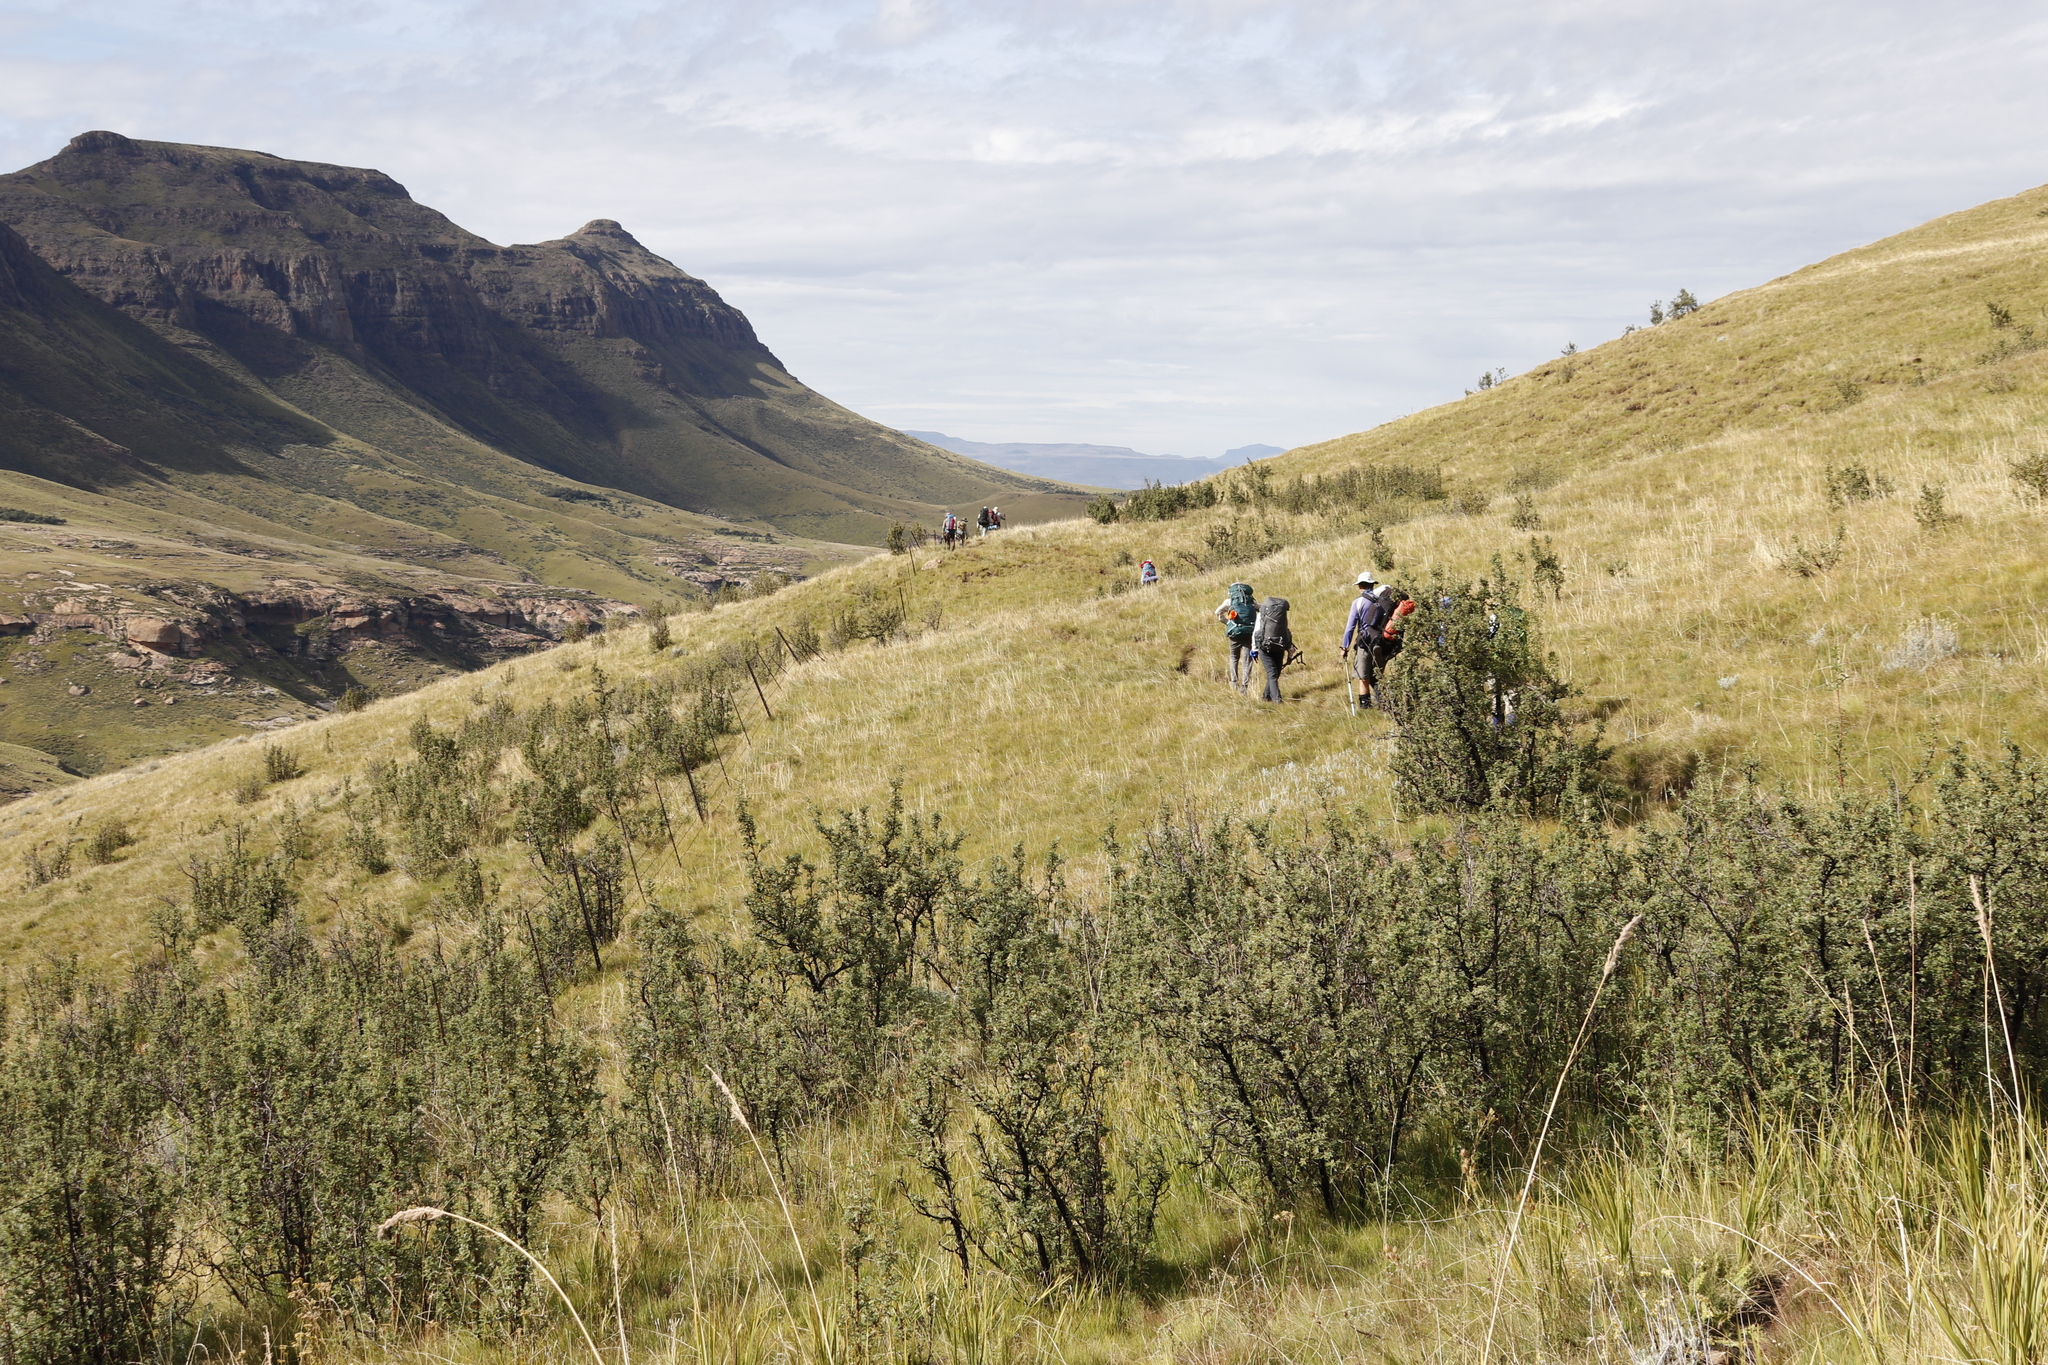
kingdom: Plantae
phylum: Tracheophyta
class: Magnoliopsida
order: Rosales
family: Rosaceae
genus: Leucosidea
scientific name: Leucosidea sericea
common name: Oldwood
